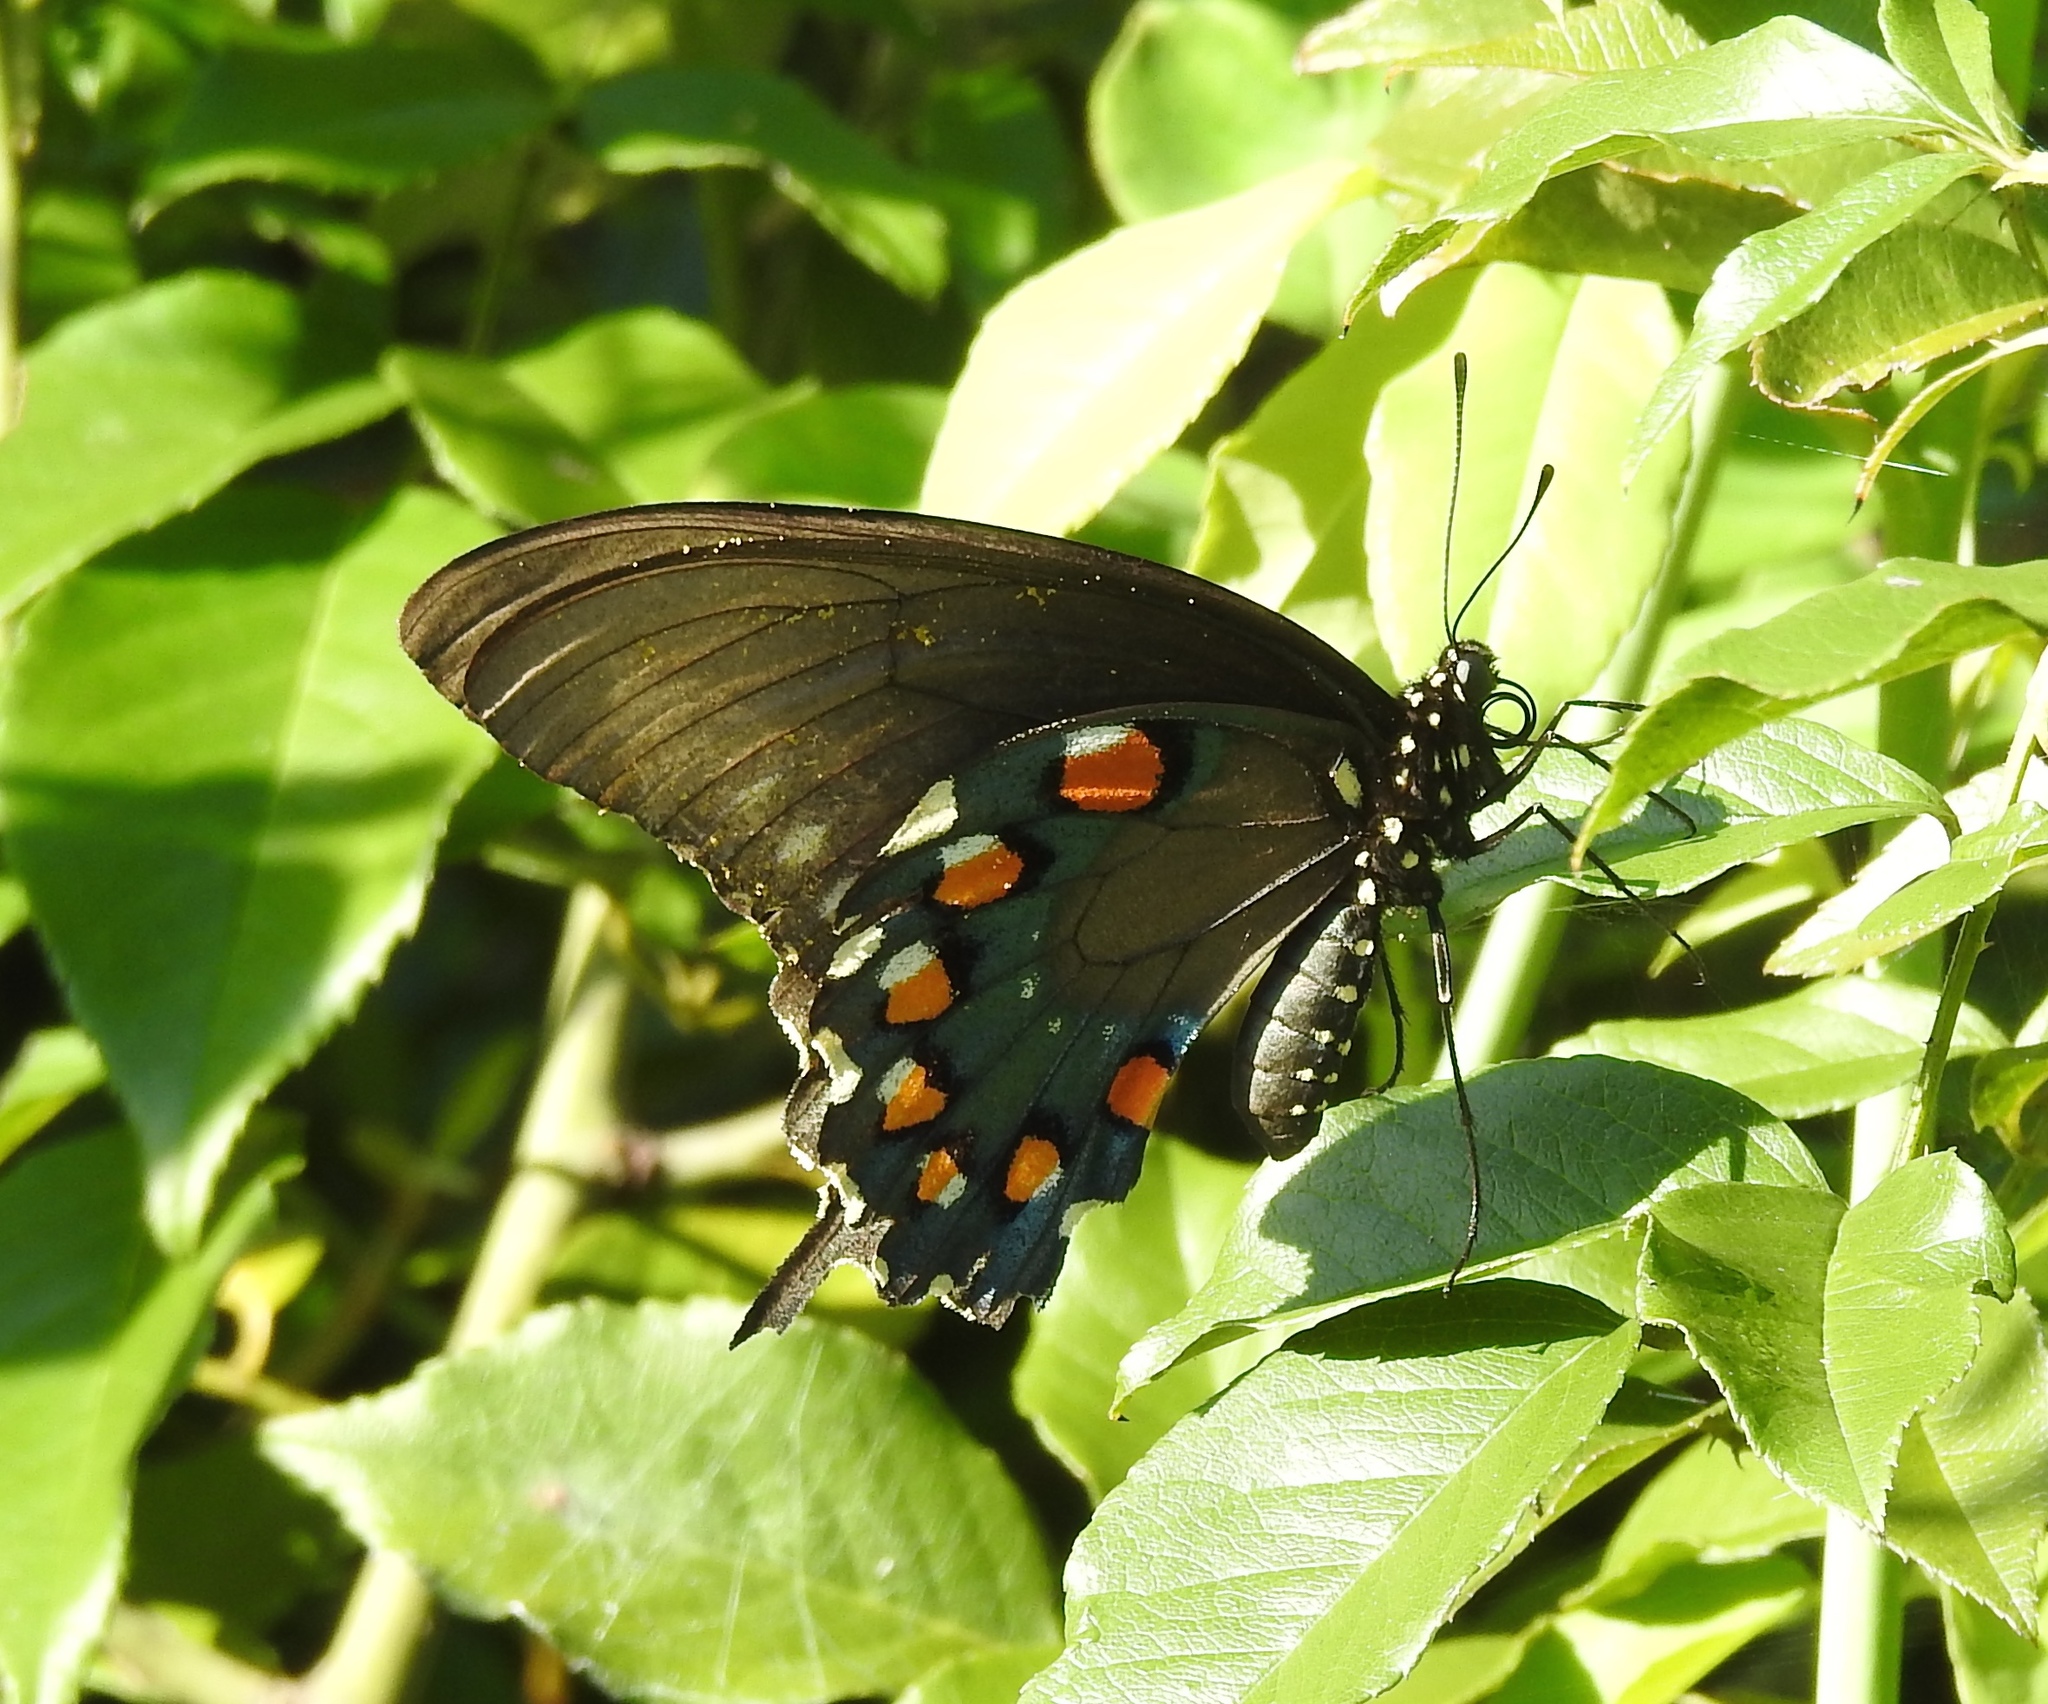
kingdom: Animalia
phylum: Arthropoda
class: Insecta
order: Lepidoptera
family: Papilionidae
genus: Battus
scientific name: Battus philenor
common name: Pipevine swallowtail
